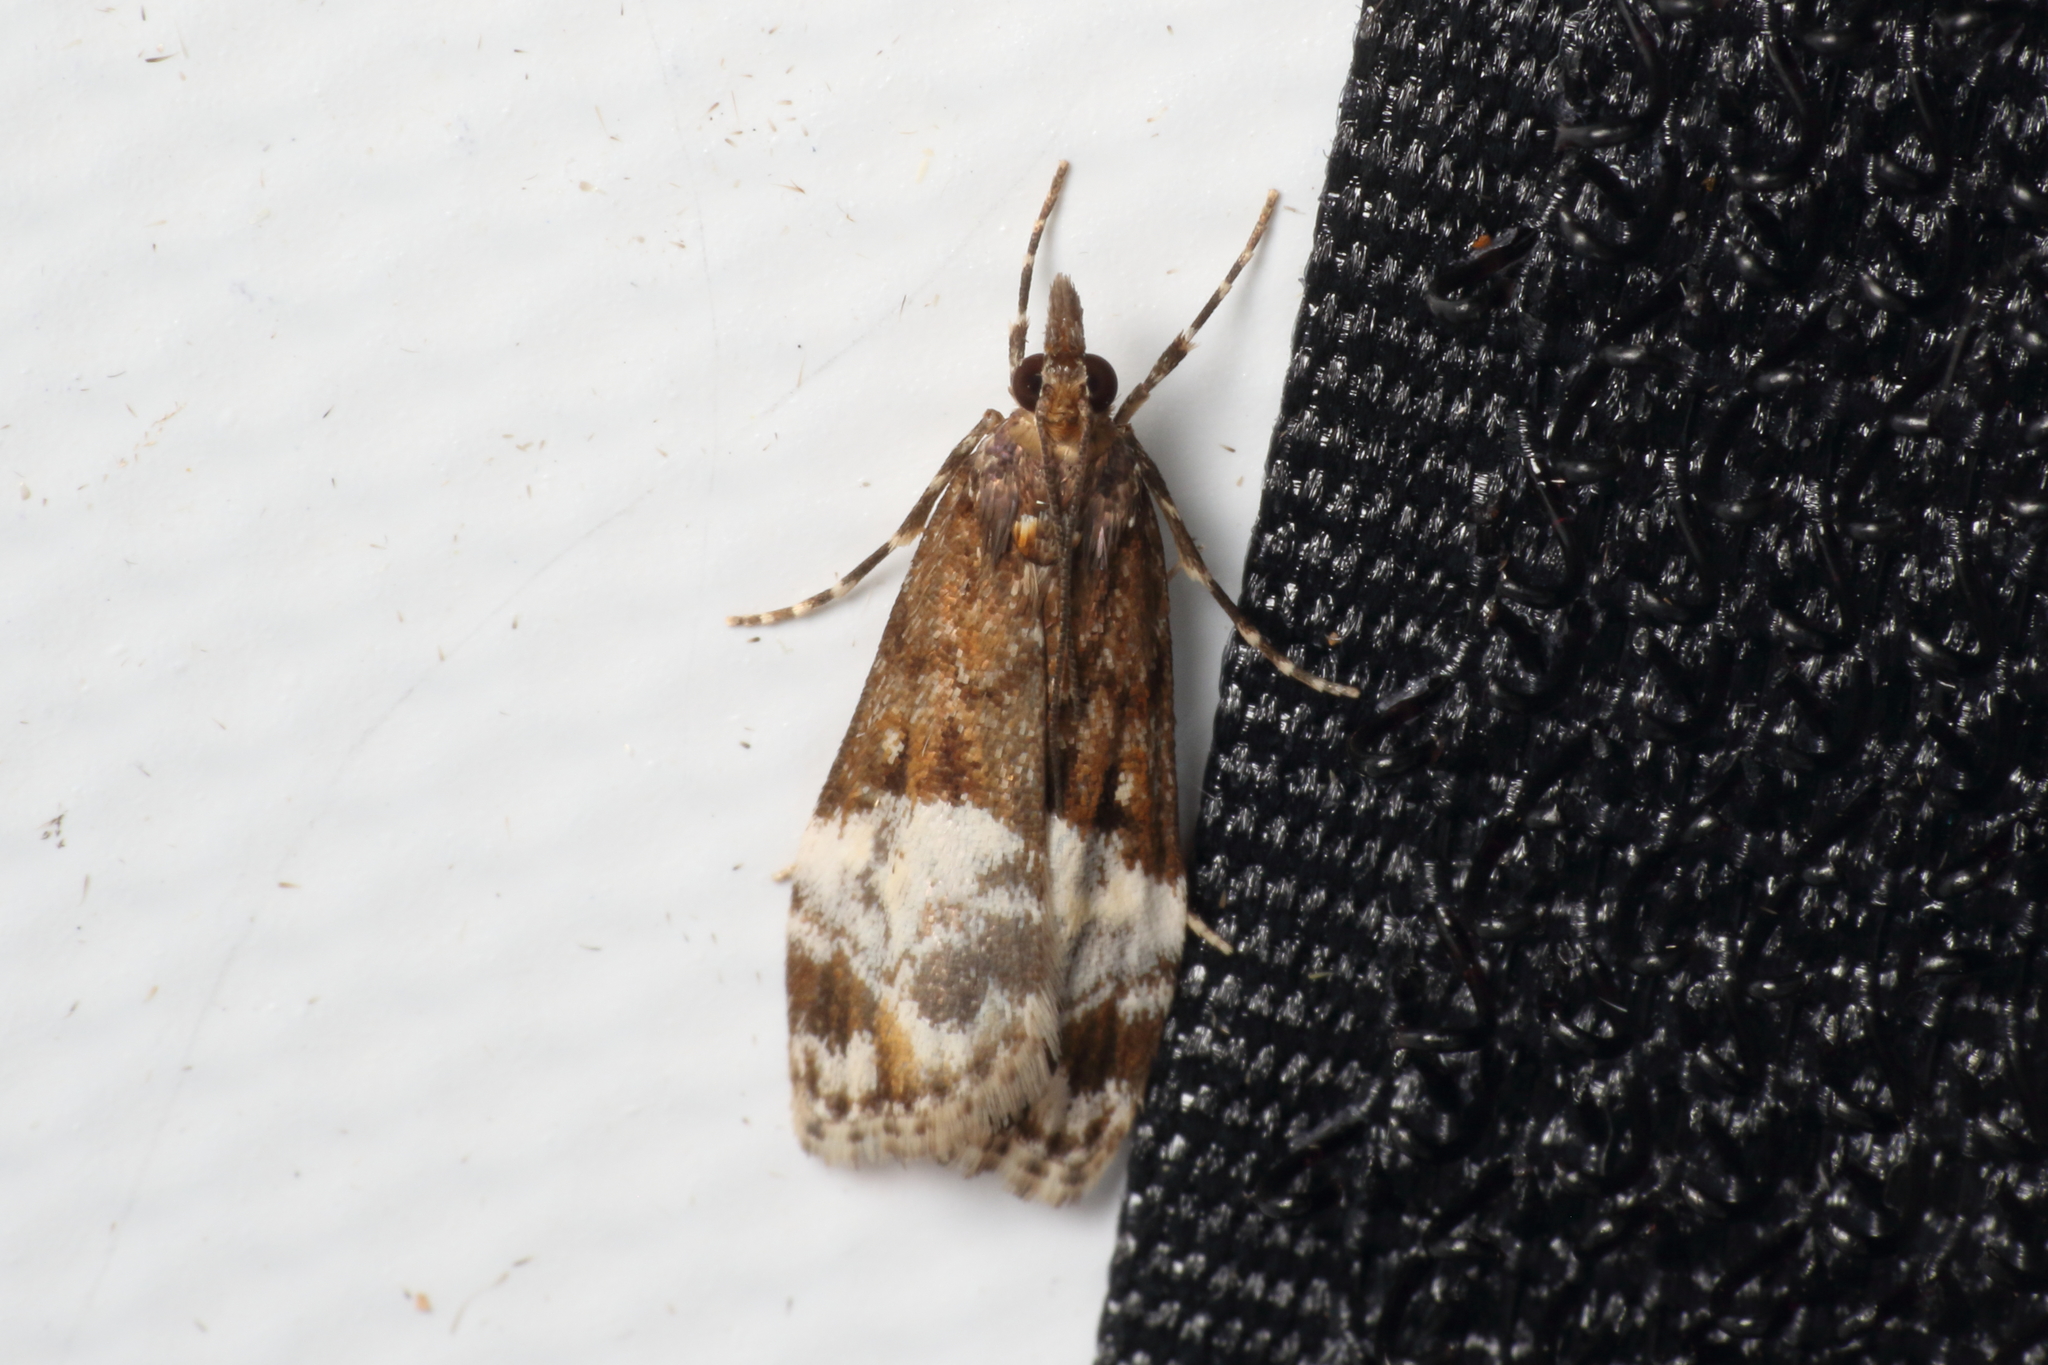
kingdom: Animalia
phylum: Arthropoda
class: Insecta
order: Lepidoptera
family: Crambidae
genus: Scoparia
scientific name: Scoparia minusculalis
